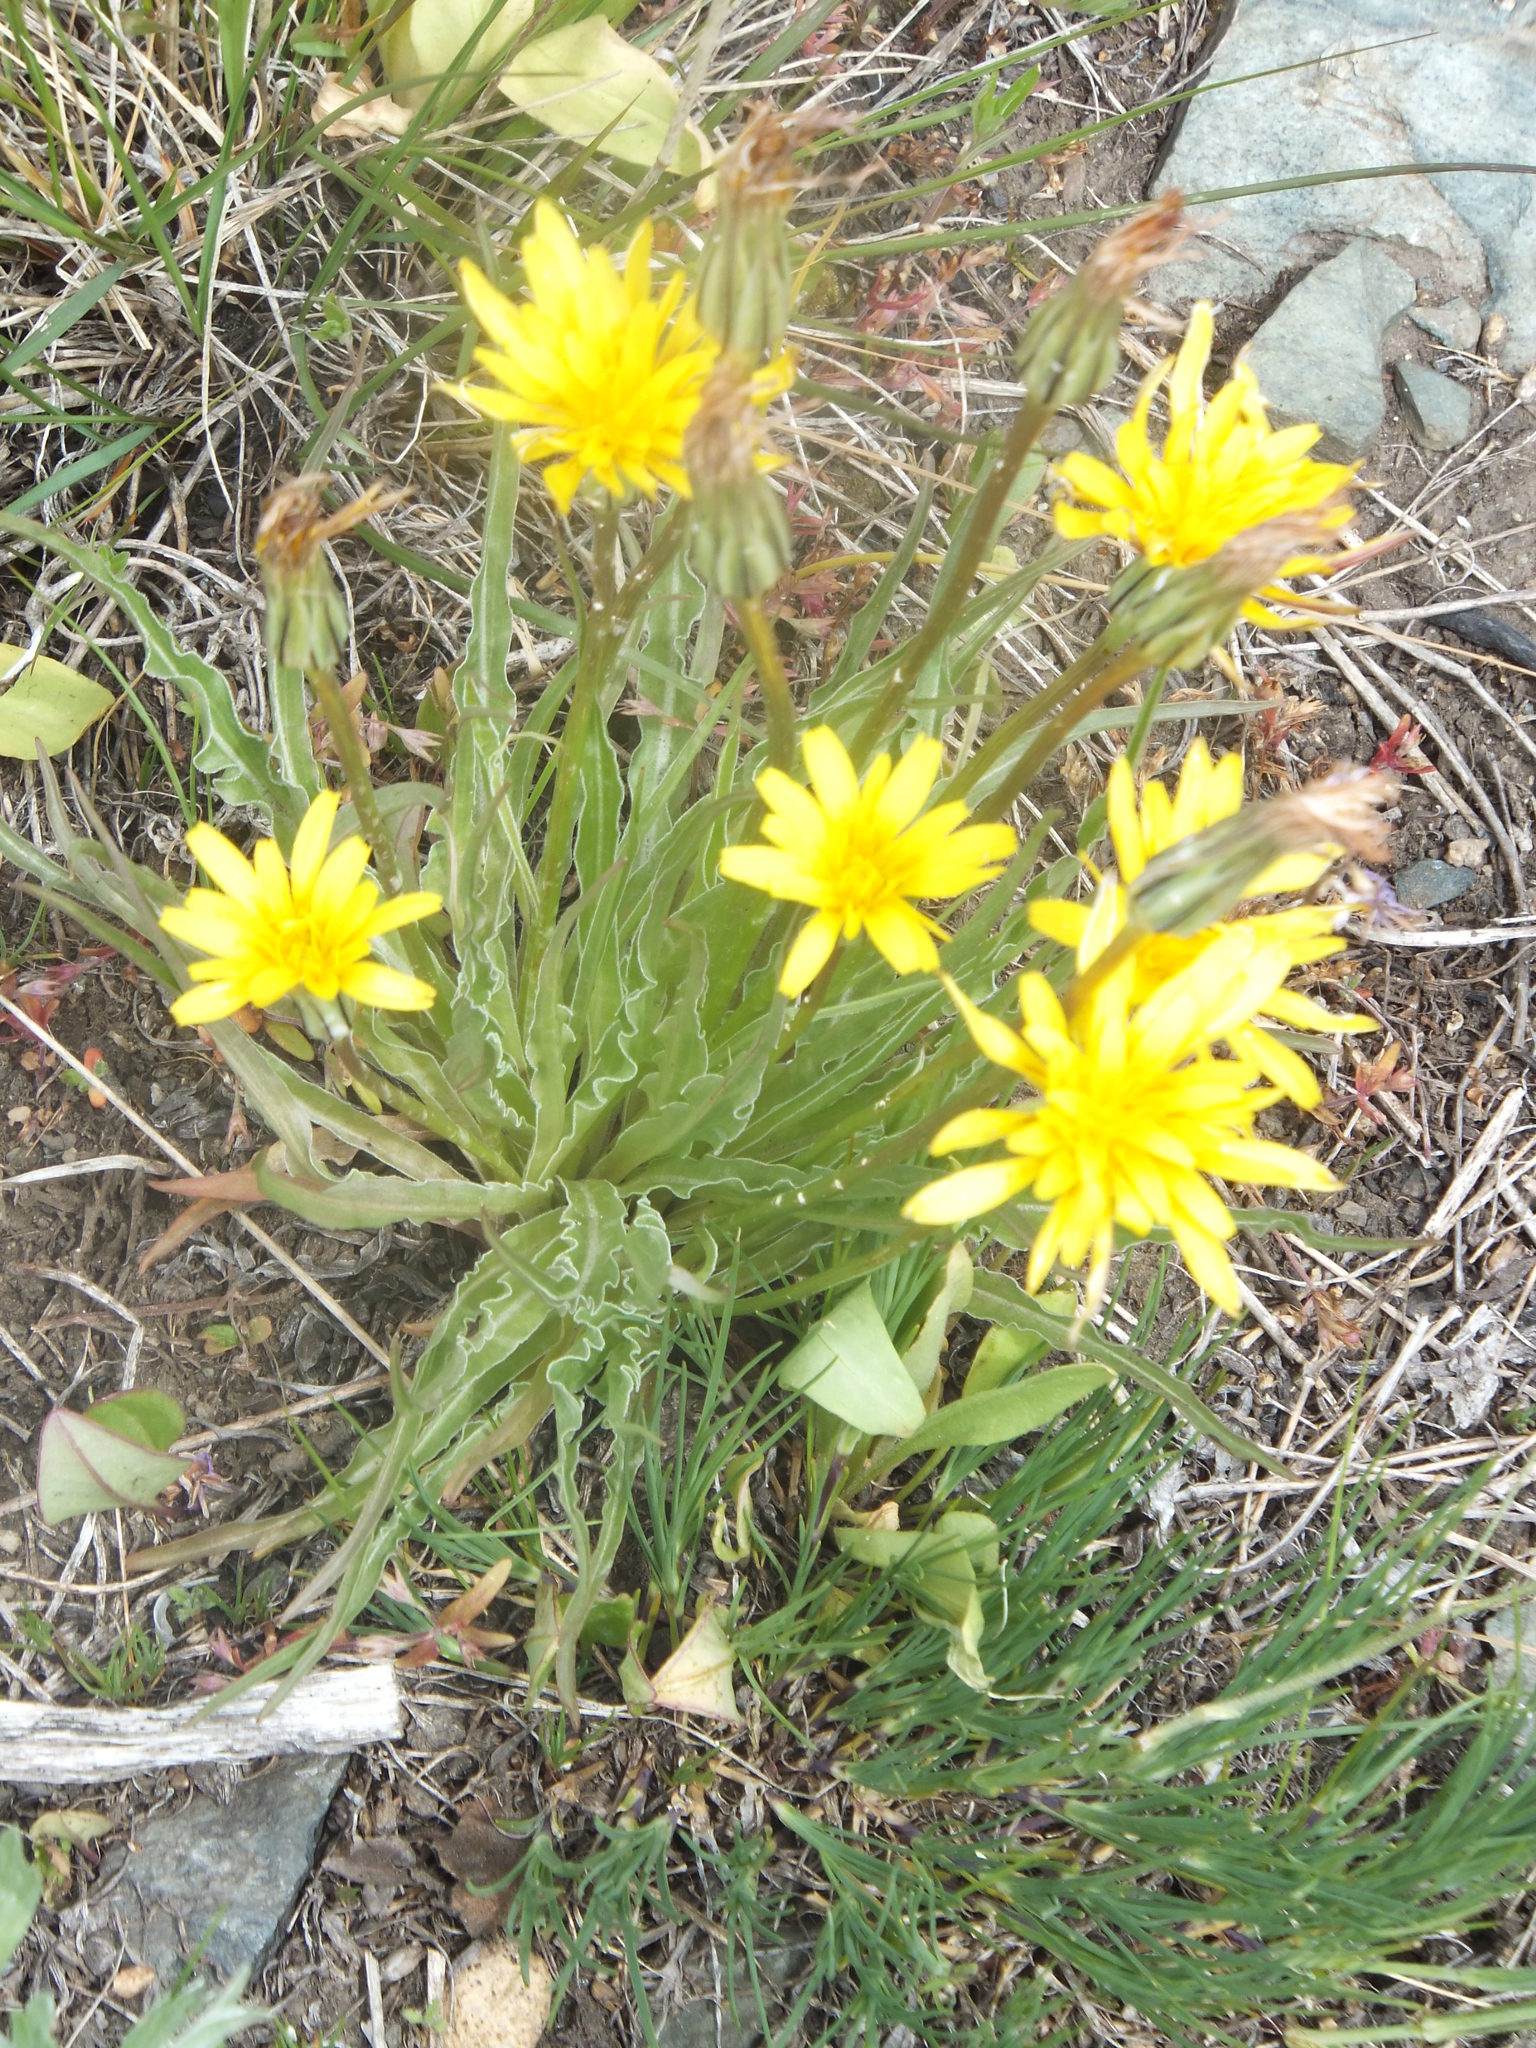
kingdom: Plantae
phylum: Tracheophyta
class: Magnoliopsida
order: Asterales
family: Asteraceae
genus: Microseris
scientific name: Microseris troximoides
